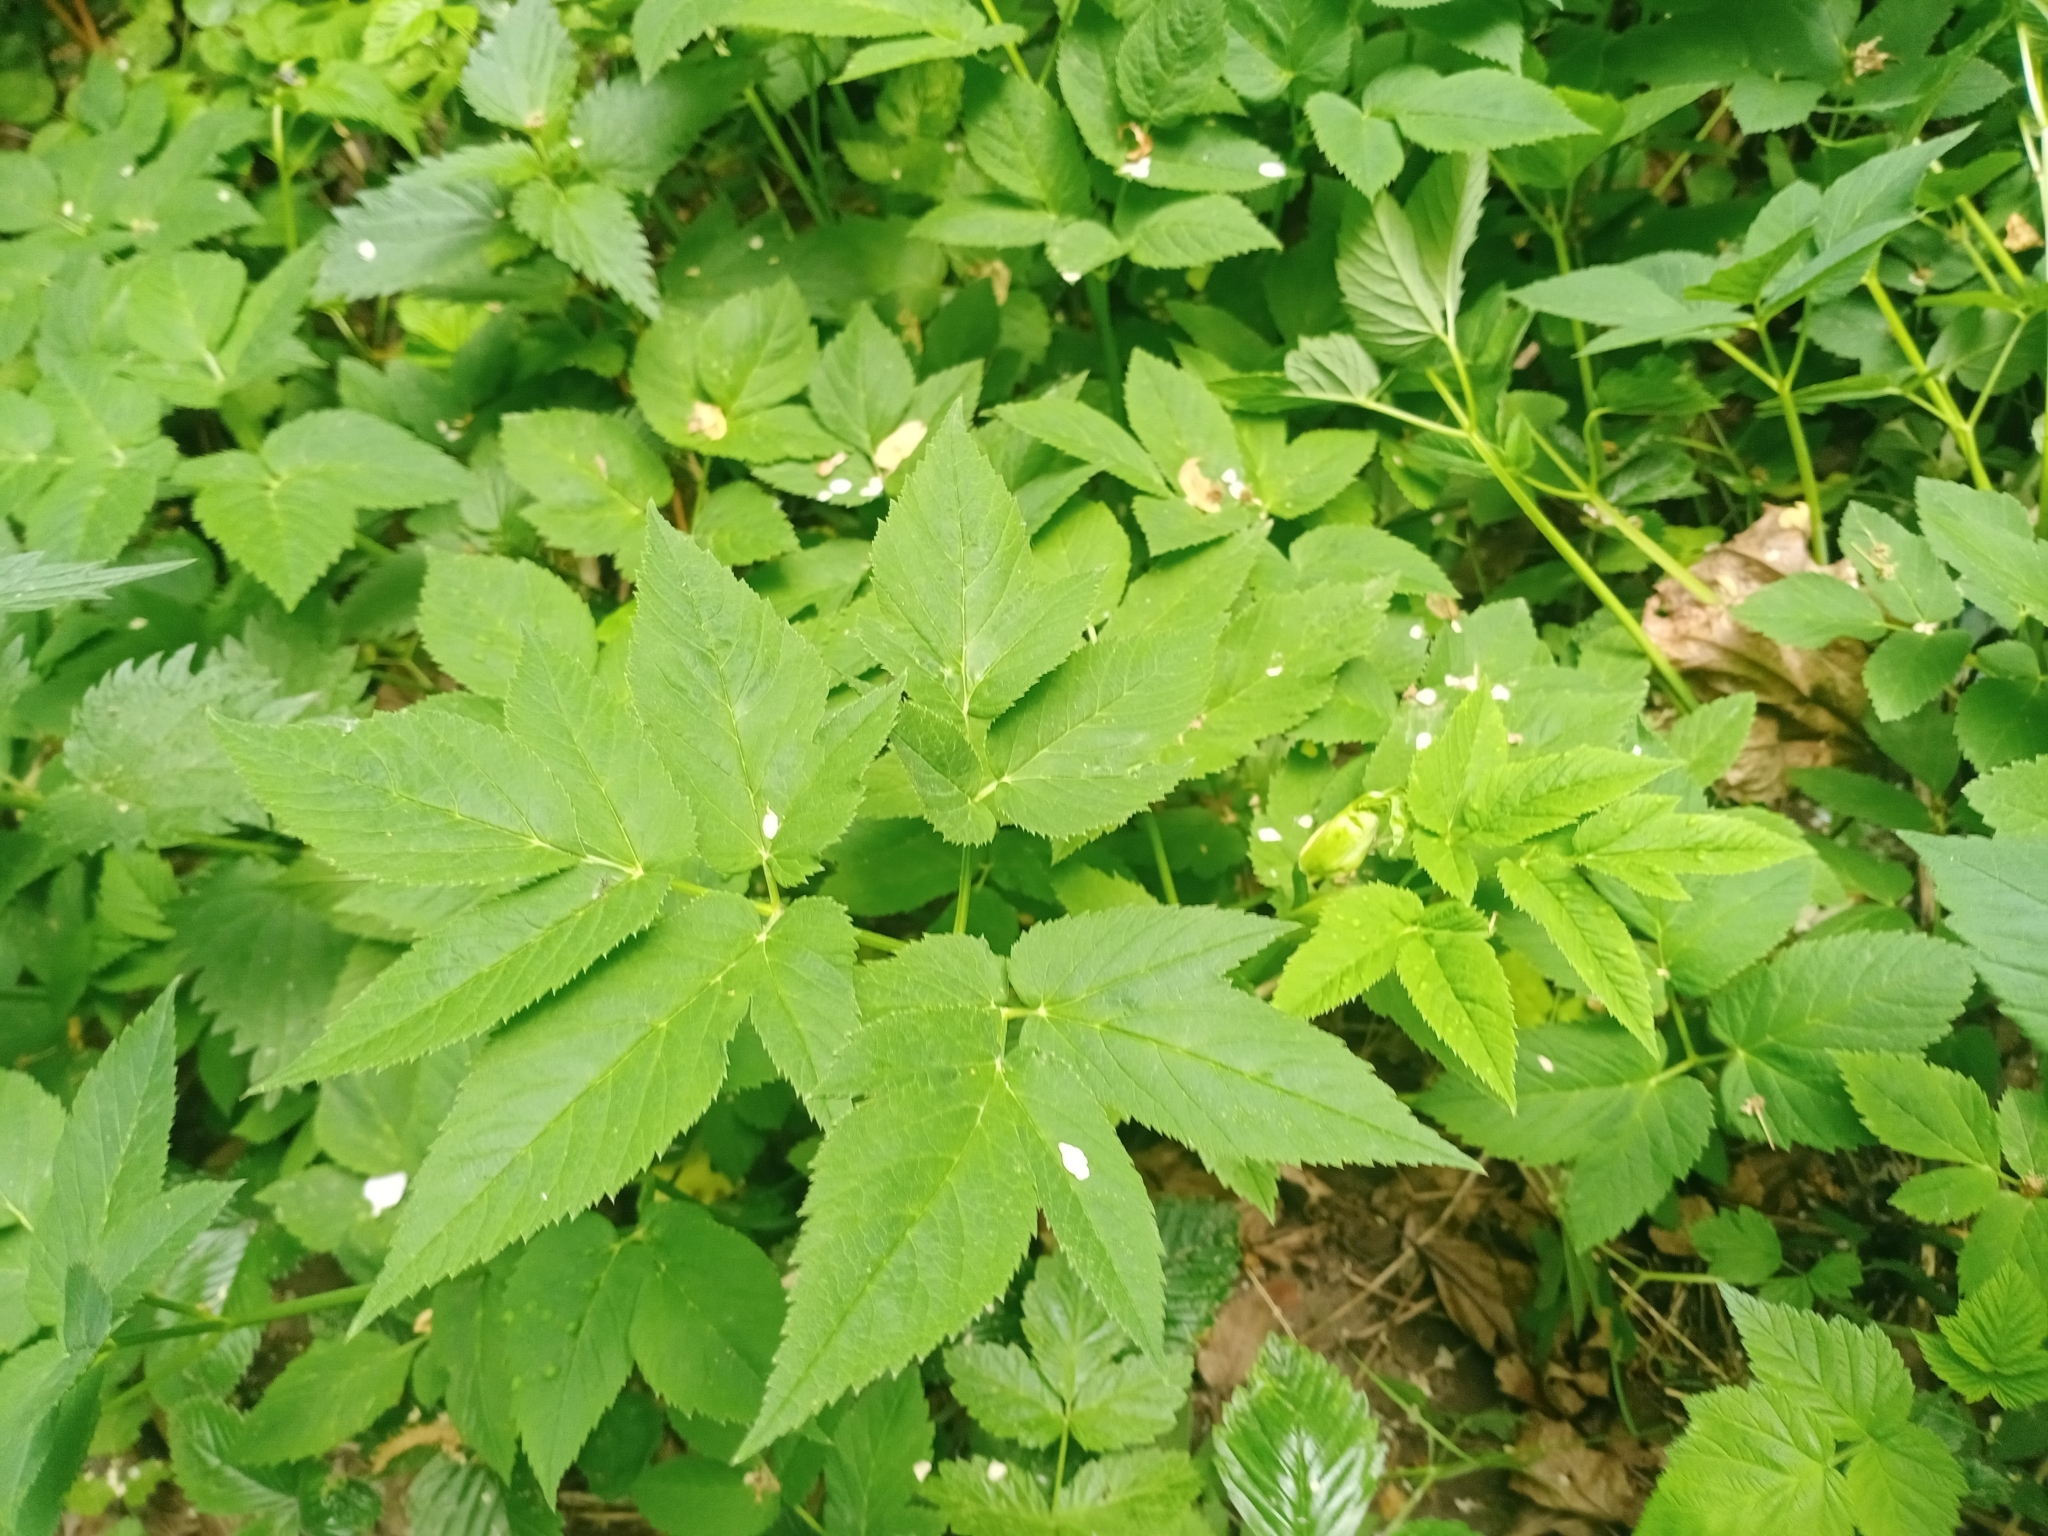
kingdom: Plantae
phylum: Tracheophyta
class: Magnoliopsida
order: Apiales
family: Apiaceae
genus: Aegopodium
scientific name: Aegopodium podagraria
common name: Ground-elder
